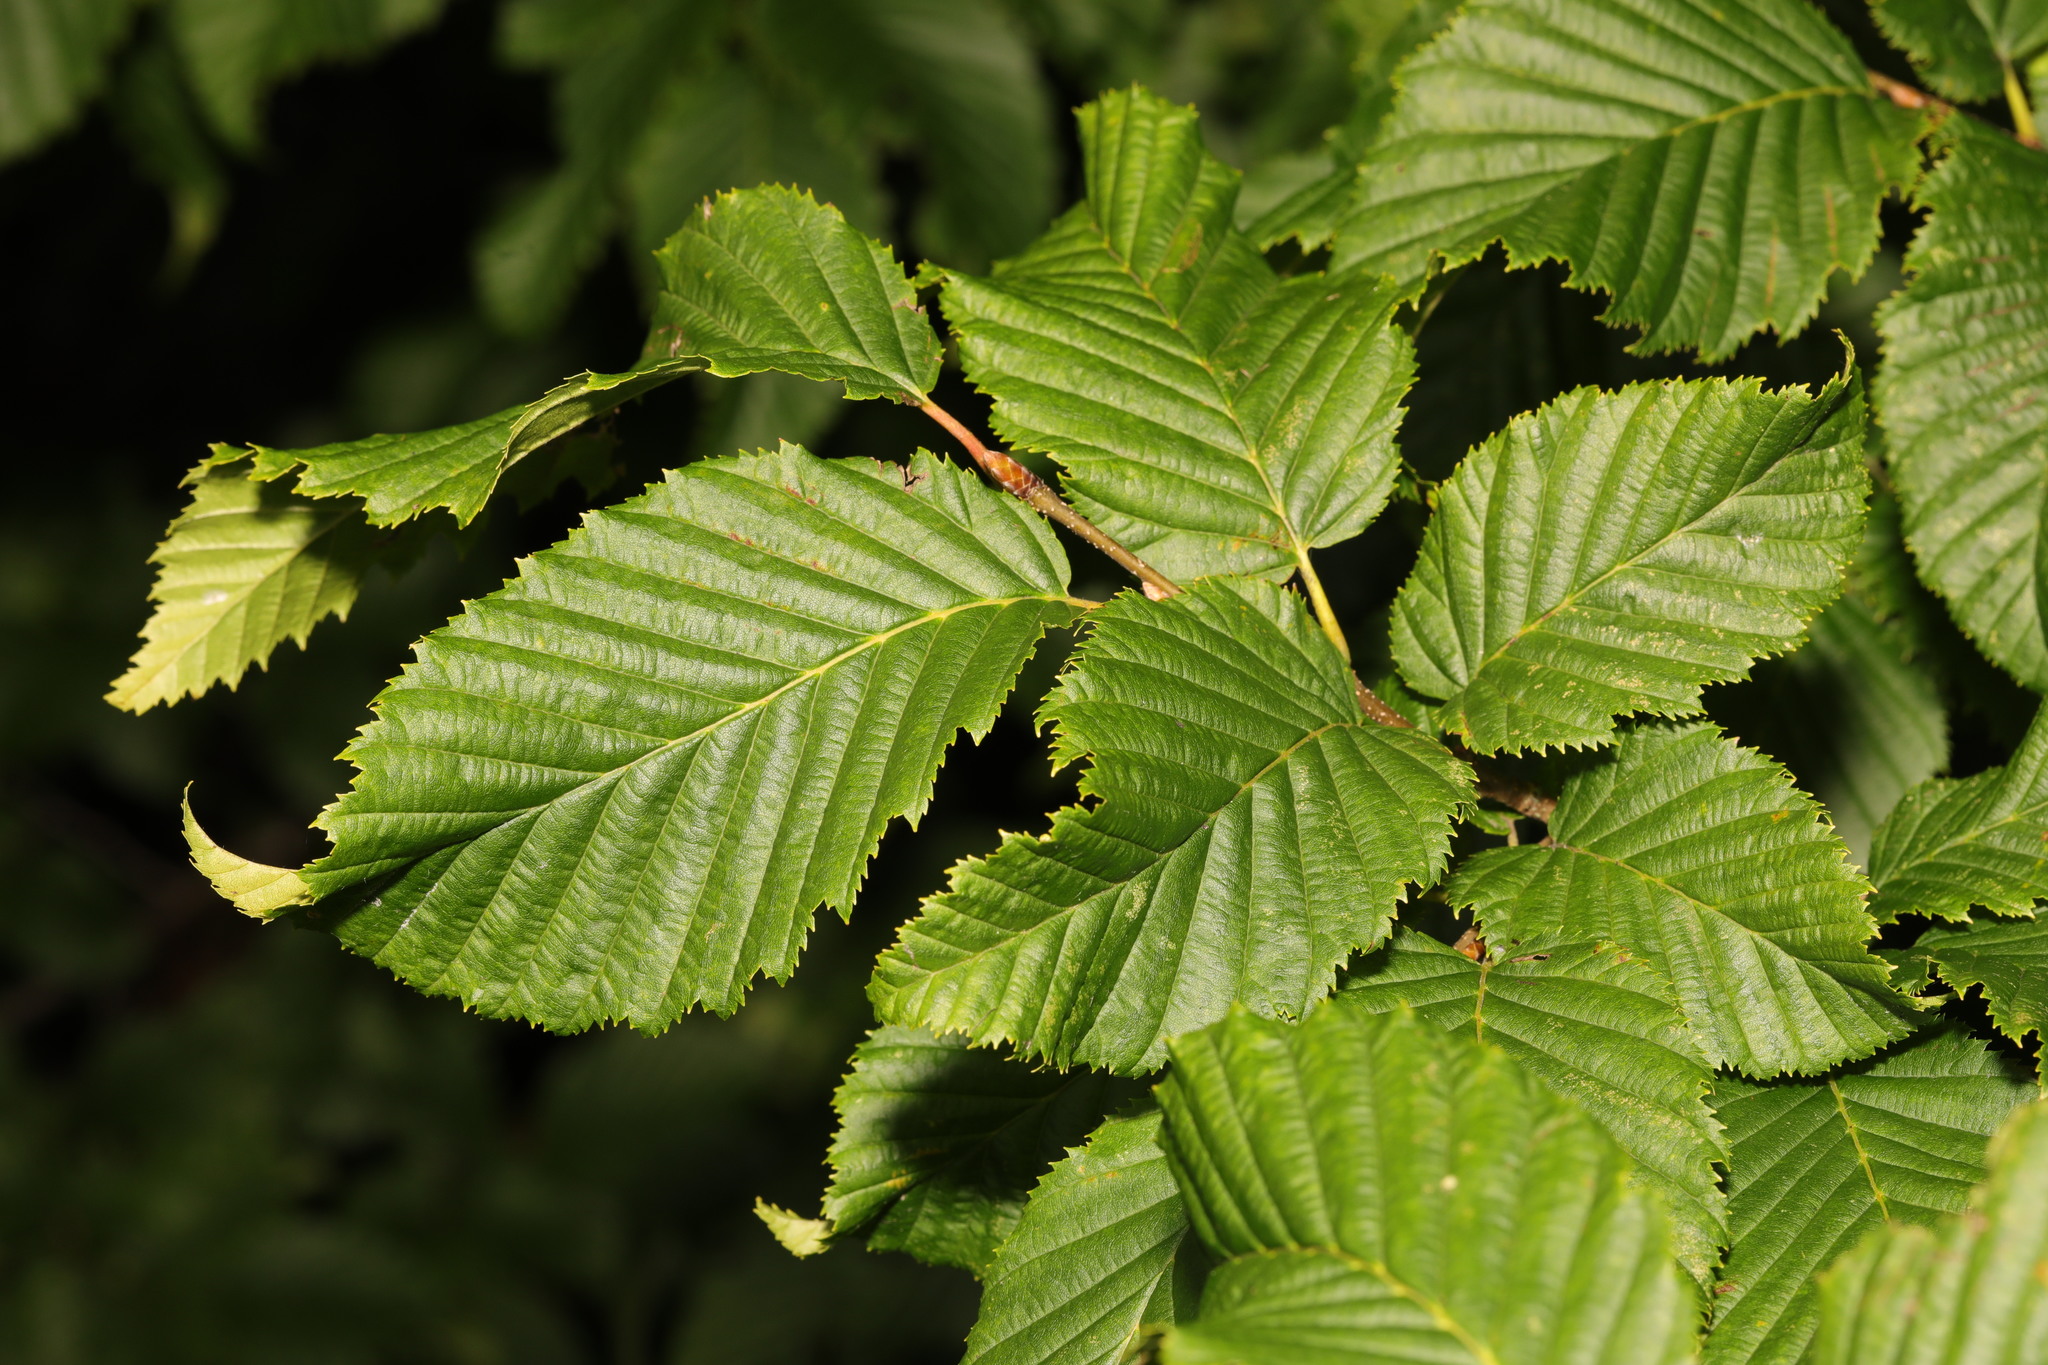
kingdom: Plantae
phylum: Tracheophyta
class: Magnoliopsida
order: Fagales
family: Betulaceae
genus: Carpinus
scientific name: Carpinus betulus
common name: Hornbeam
